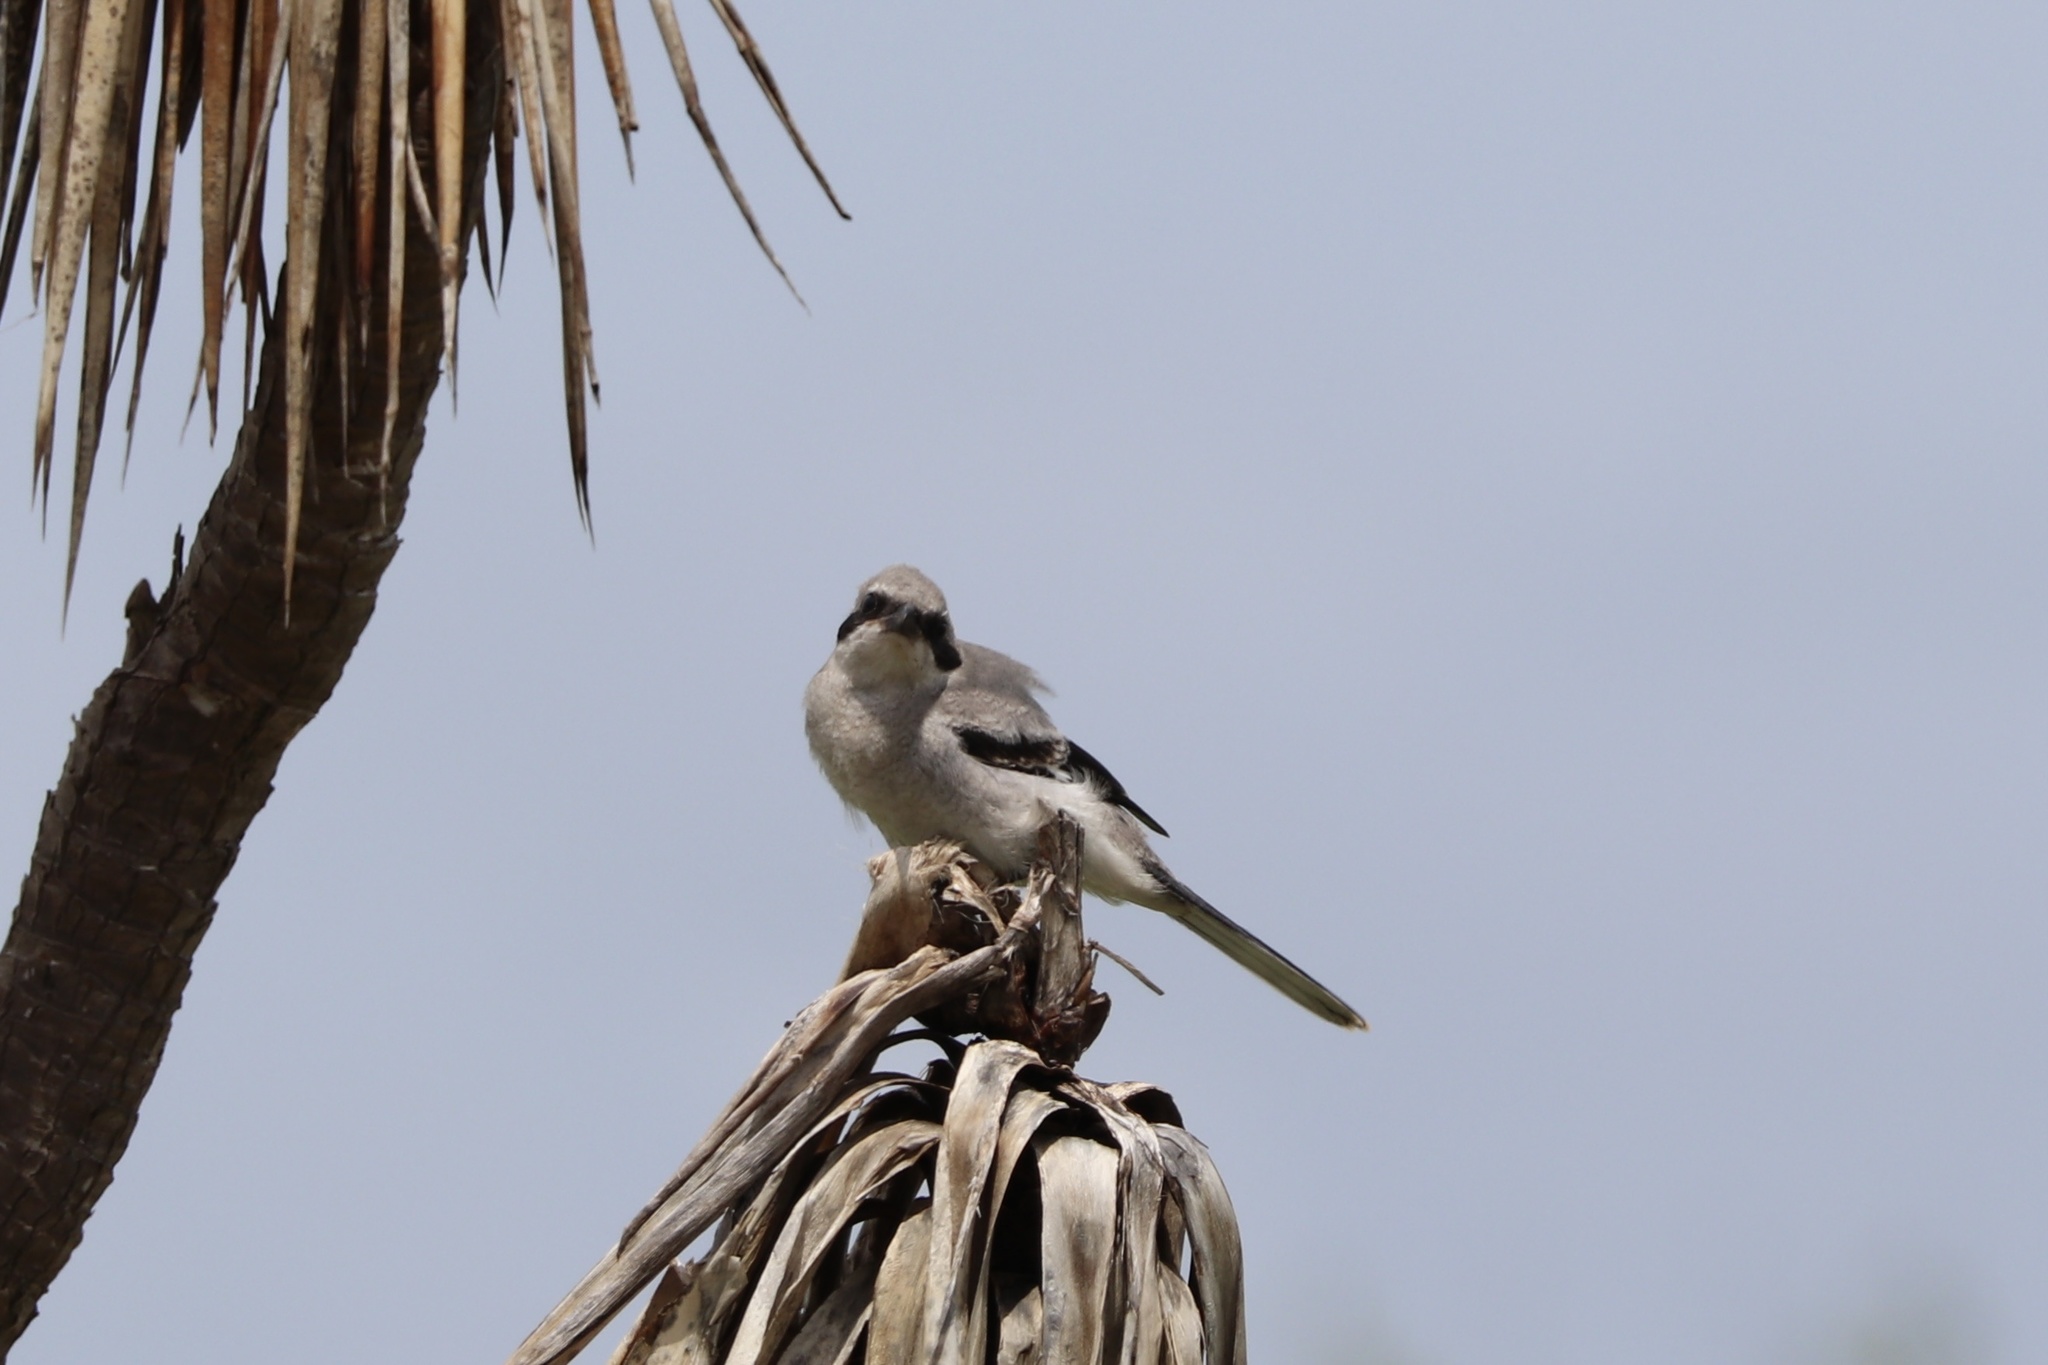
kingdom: Animalia
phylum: Chordata
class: Aves
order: Passeriformes
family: Laniidae
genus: Lanius
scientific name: Lanius ludovicianus
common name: Loggerhead shrike
